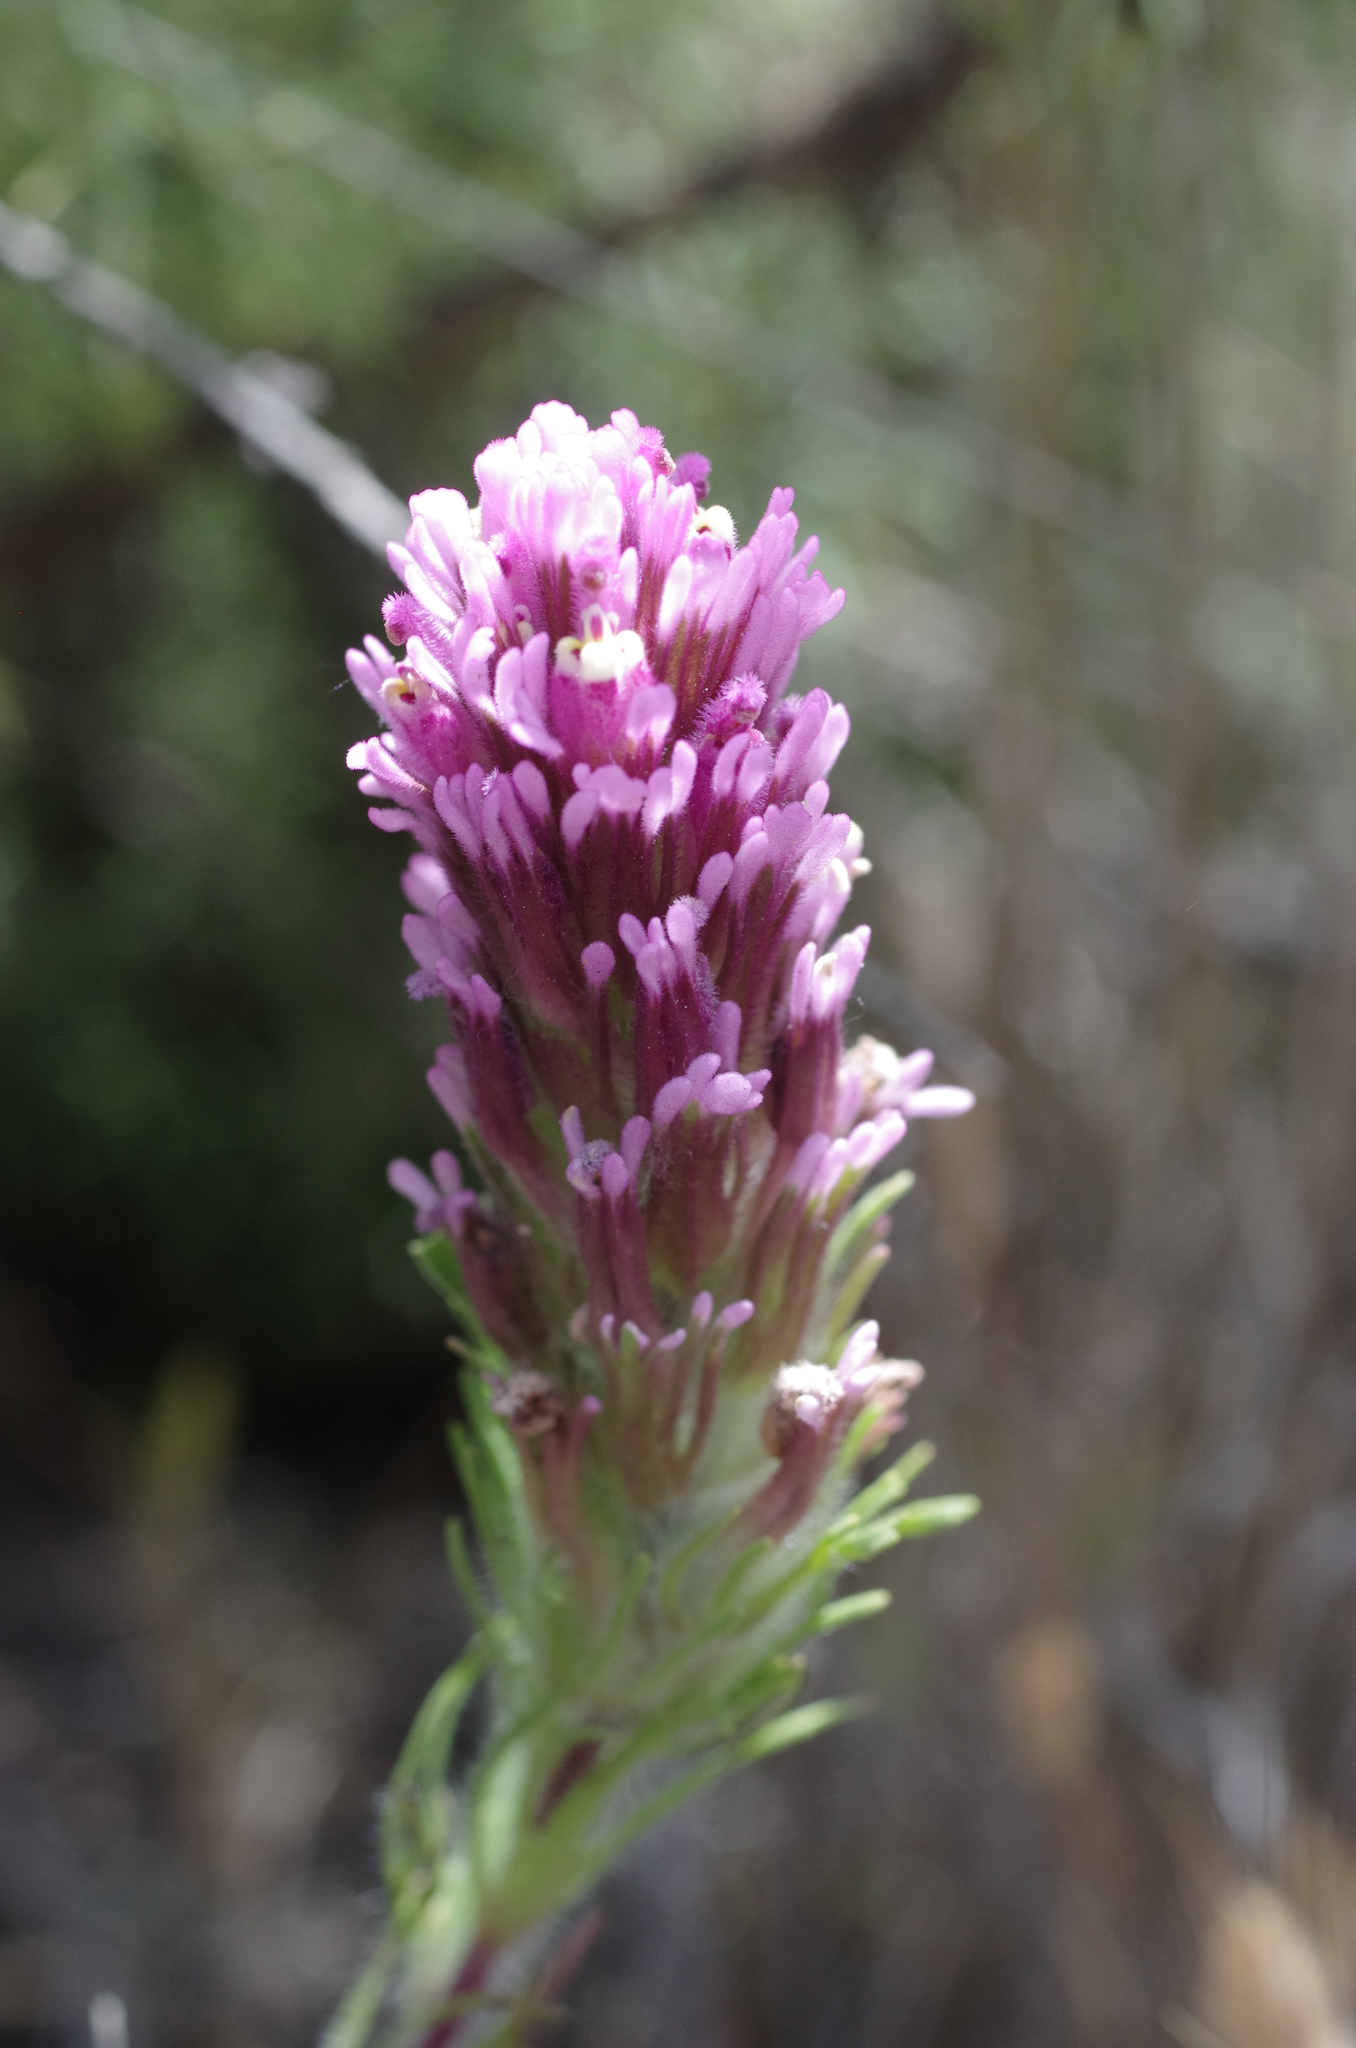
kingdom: Plantae
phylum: Tracheophyta
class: Magnoliopsida
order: Lamiales
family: Orobanchaceae
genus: Castilleja
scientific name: Castilleja exserta
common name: Purple owl-clover
